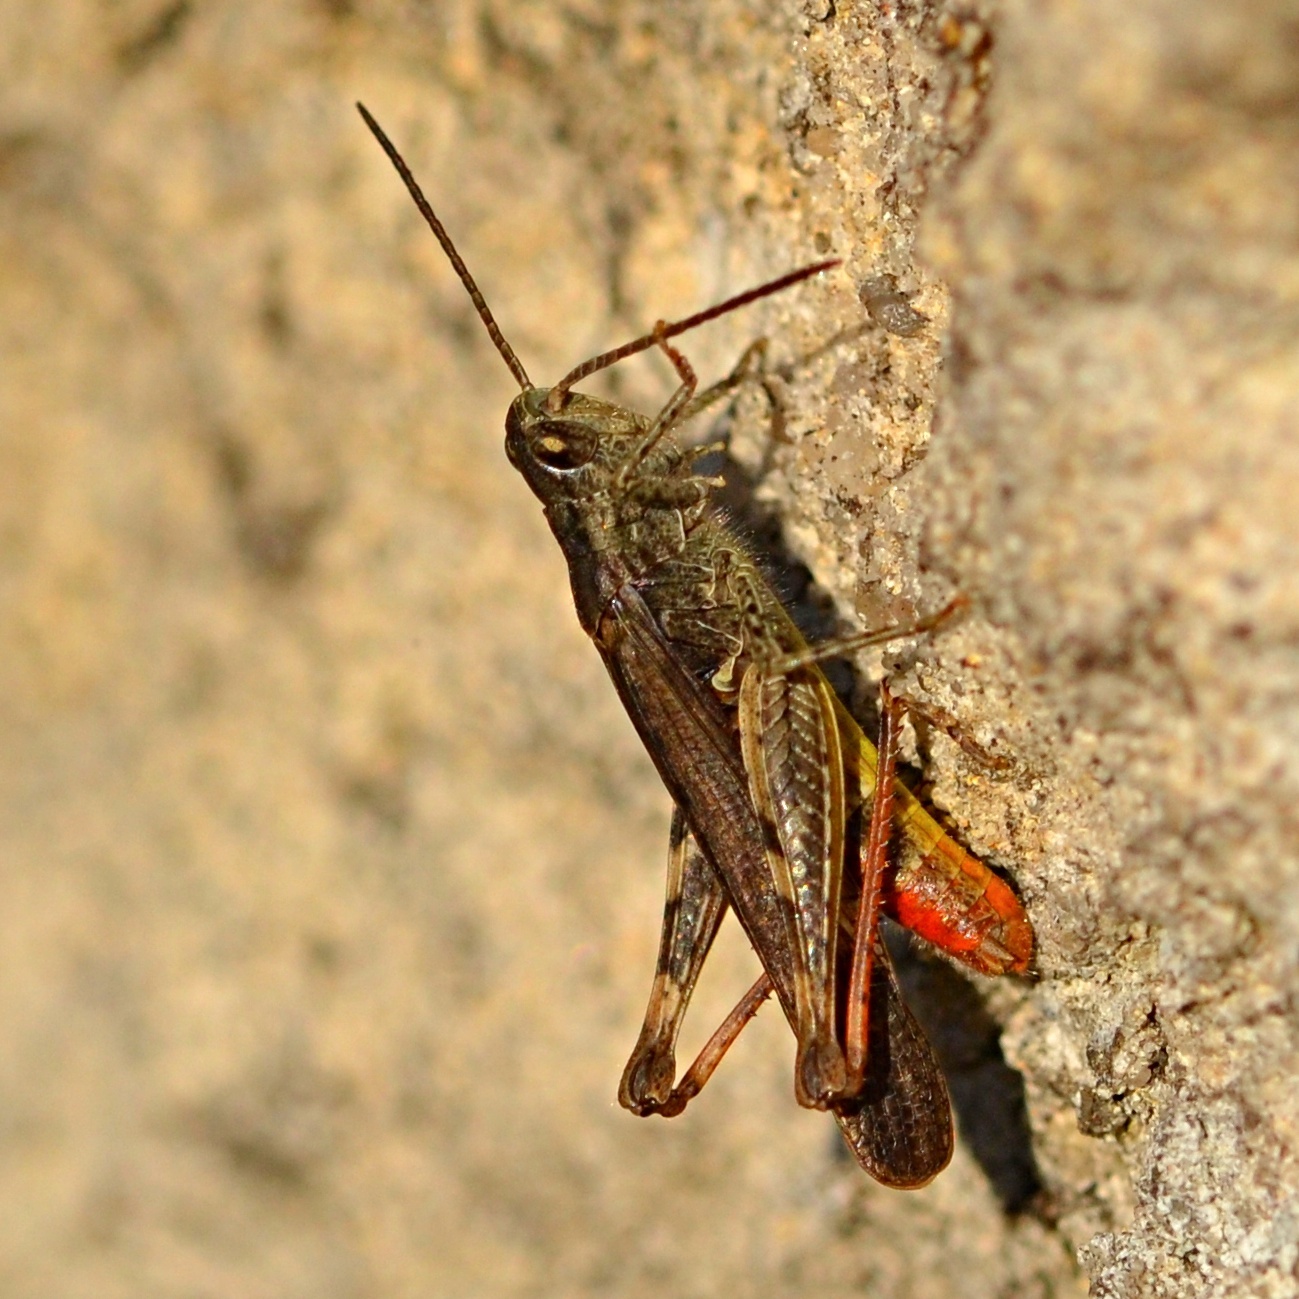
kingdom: Animalia
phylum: Arthropoda
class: Insecta
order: Orthoptera
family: Acrididae
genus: Chorthippus
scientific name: Chorthippus brunneus
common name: Field grasshopper
